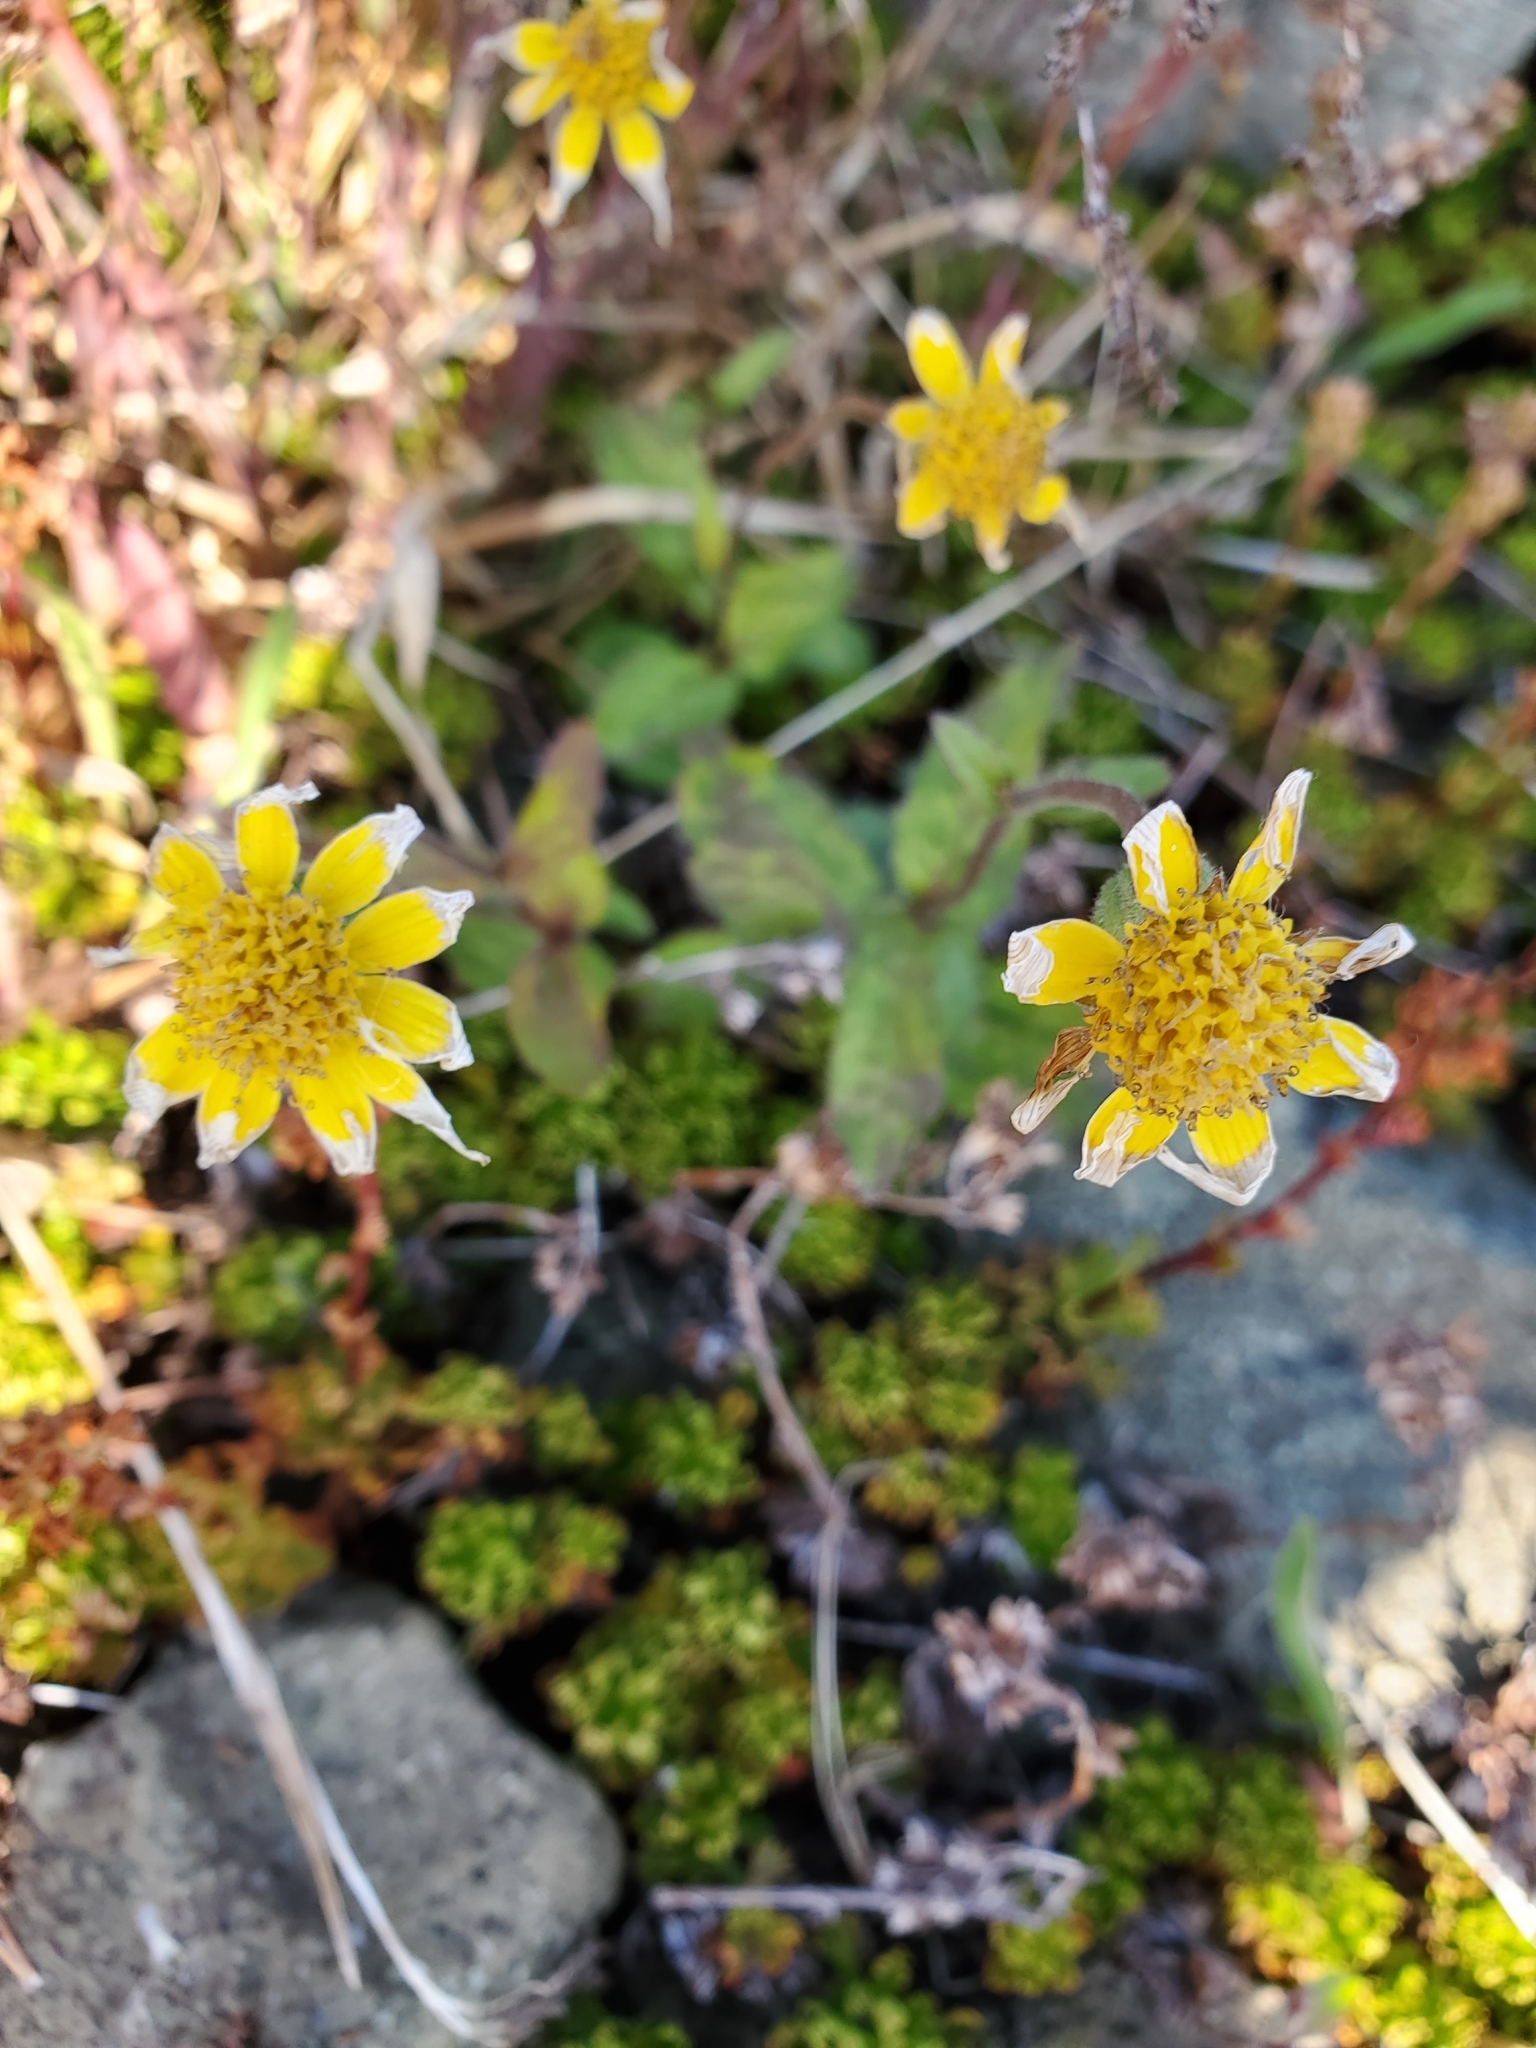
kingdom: Plantae
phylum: Tracheophyta
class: Magnoliopsida
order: Asterales
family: Asteraceae
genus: Arnica
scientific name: Arnica latifolia
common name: Arnica
